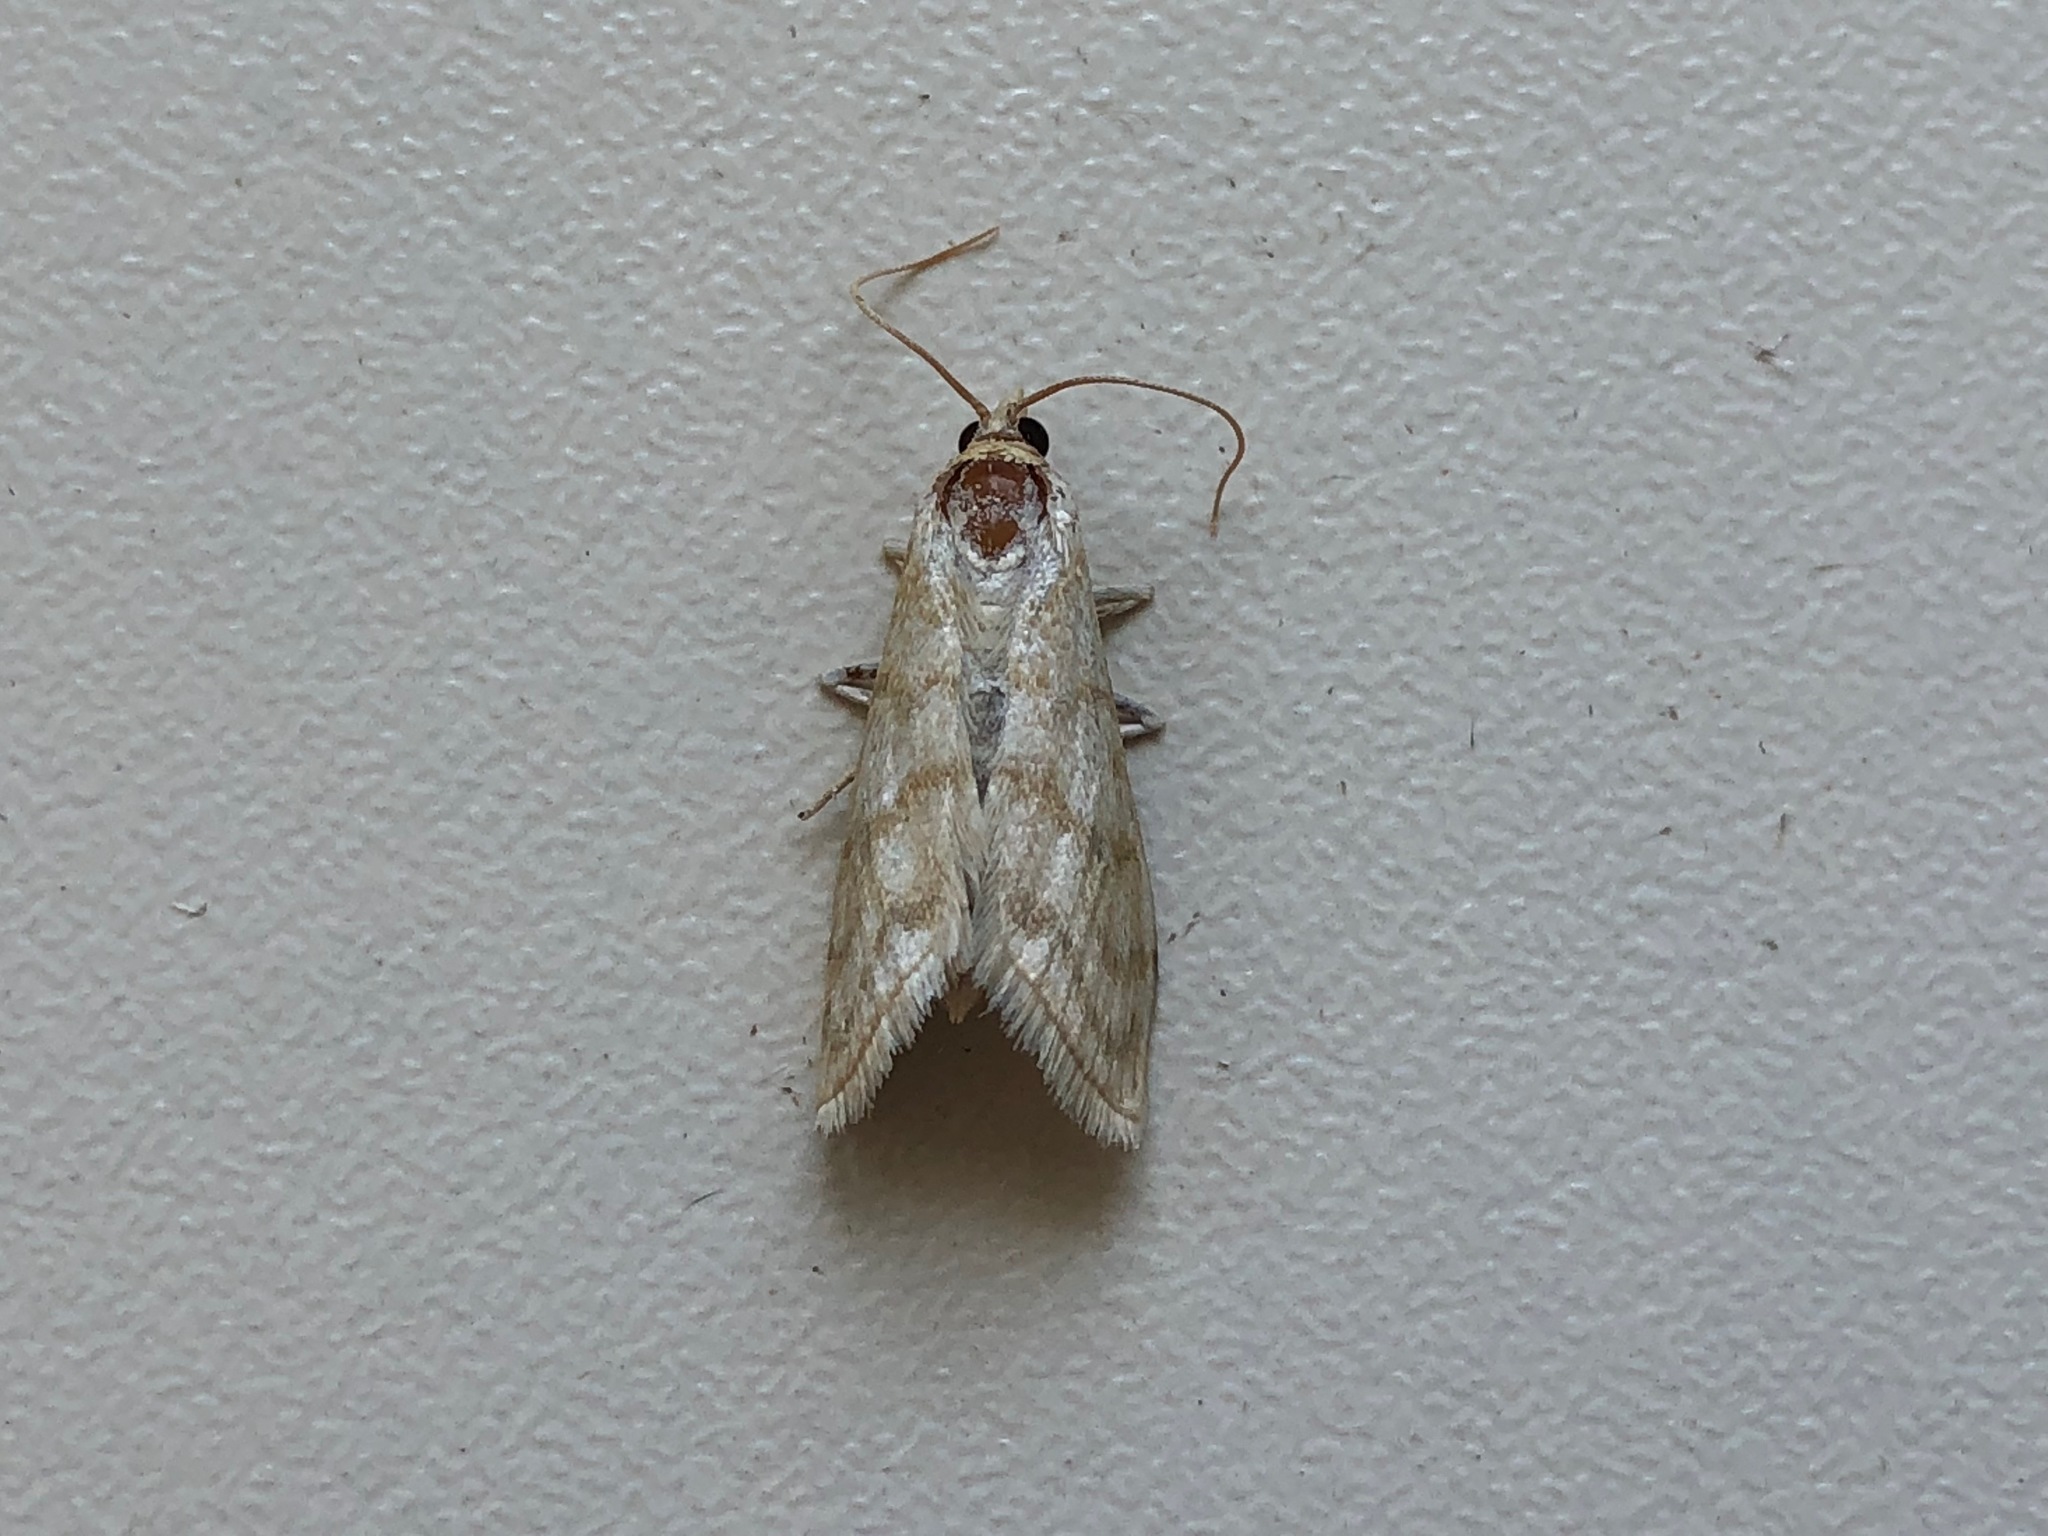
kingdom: Animalia
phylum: Arthropoda
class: Insecta
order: Lepidoptera
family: Crambidae
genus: Paracorsia
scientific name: Paracorsia repandalis
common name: Mullein moth
